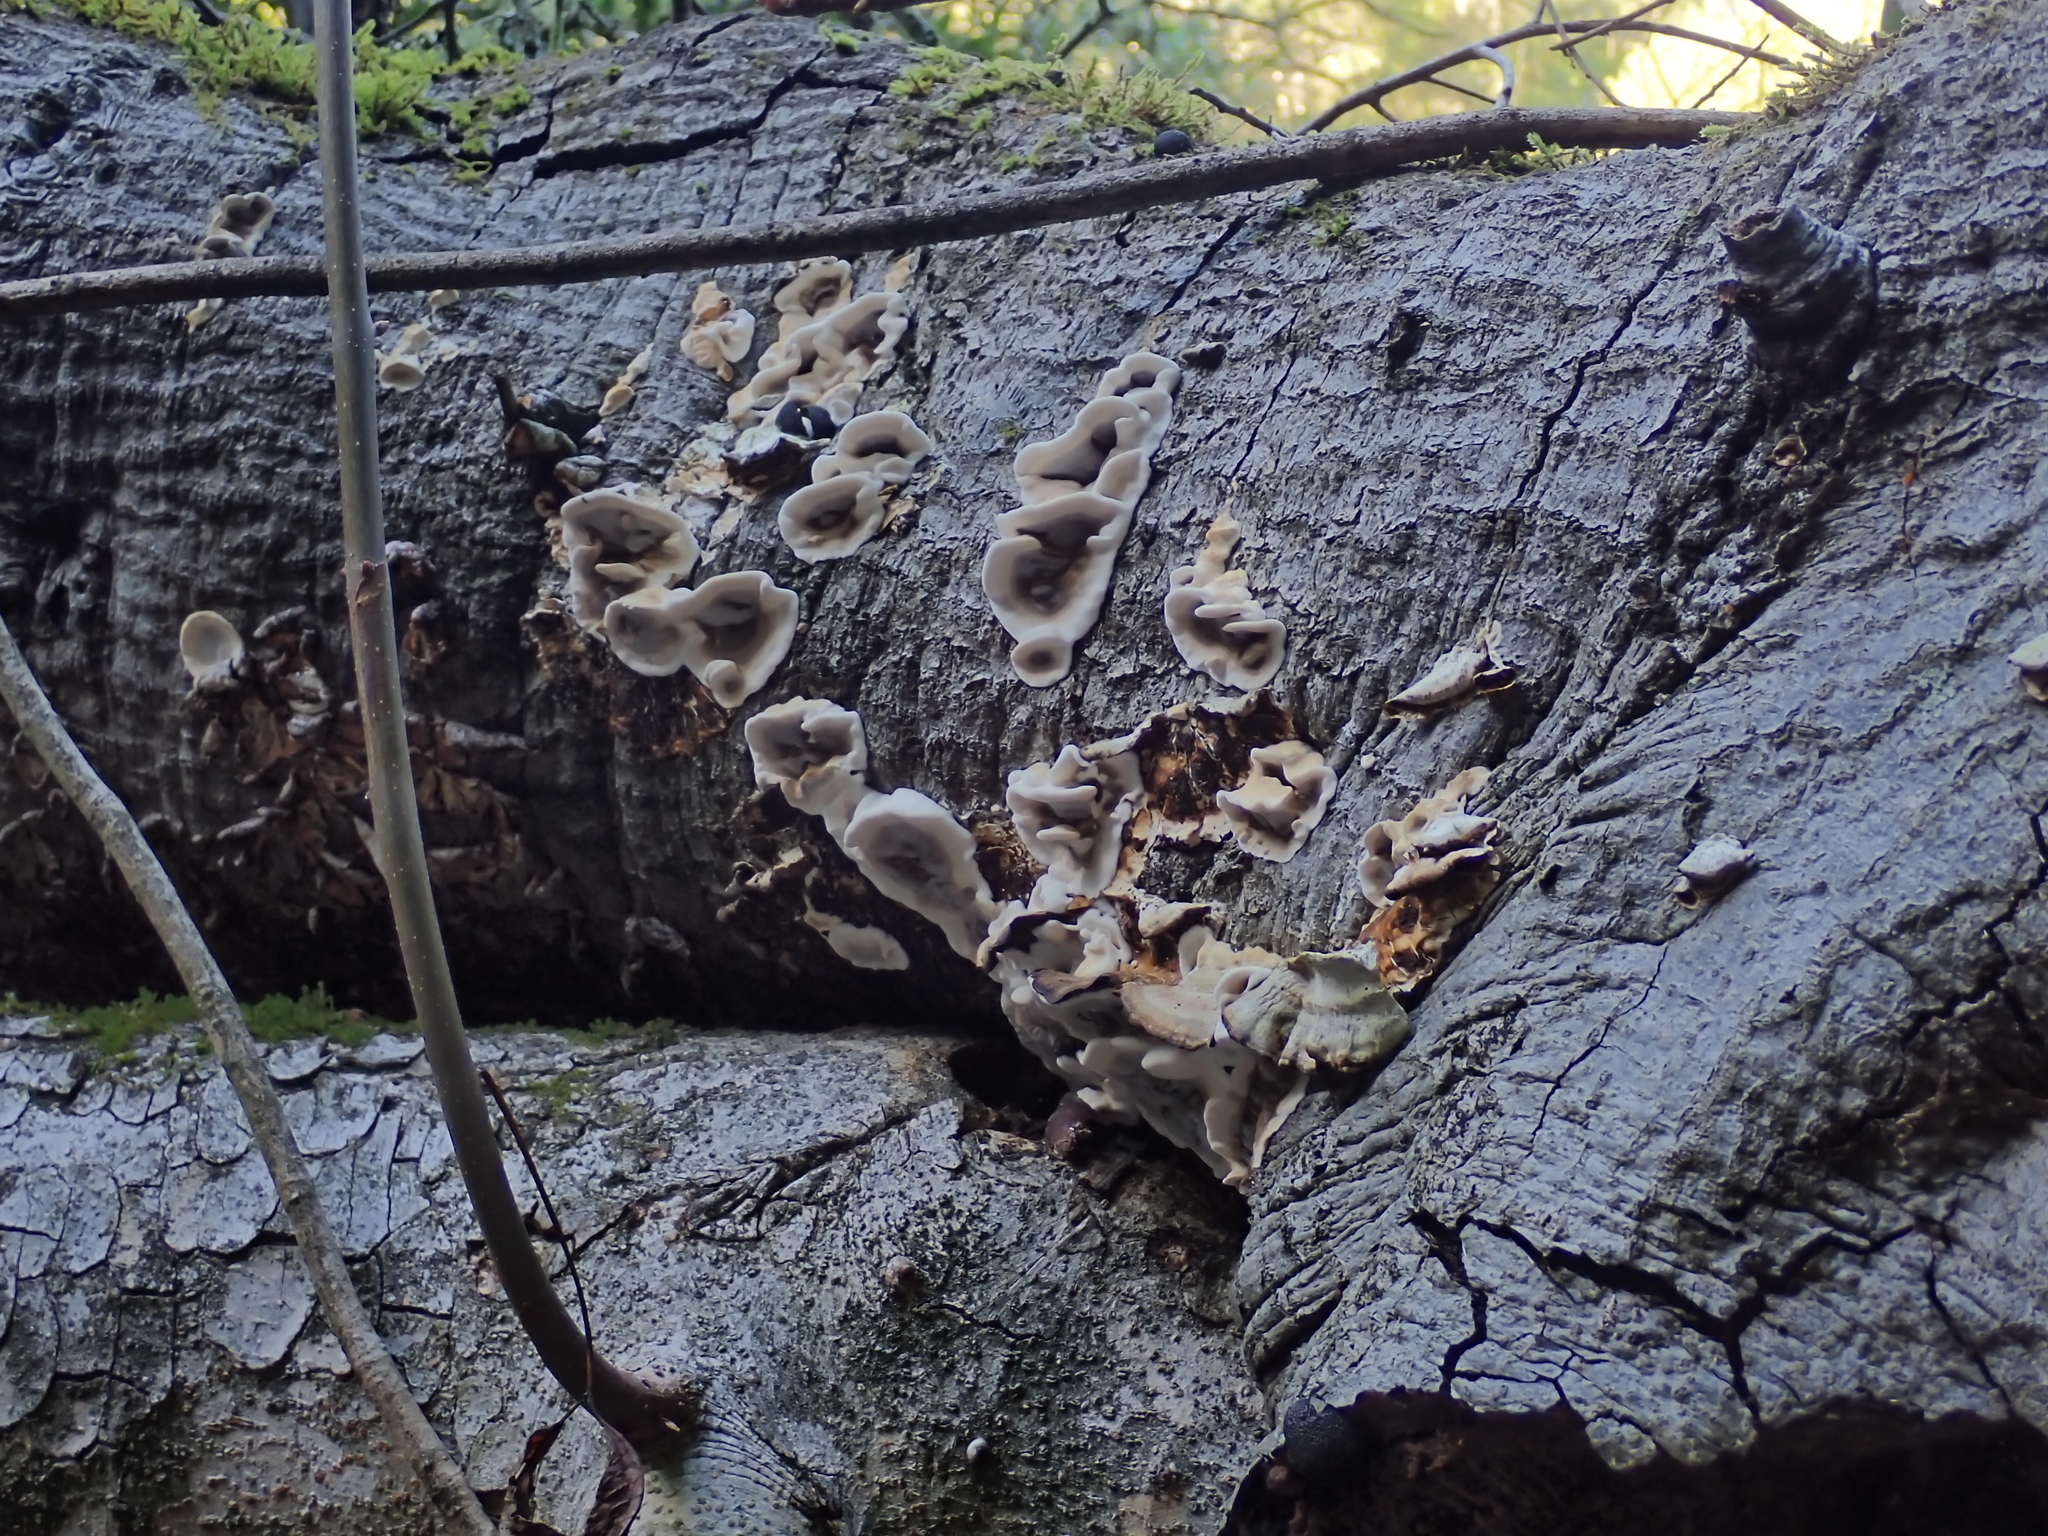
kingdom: Fungi
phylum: Basidiomycota
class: Agaricomycetes
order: Polyporales
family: Phanerochaetaceae
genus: Bjerkandera
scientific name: Bjerkandera adusta
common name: Smoky bracket
